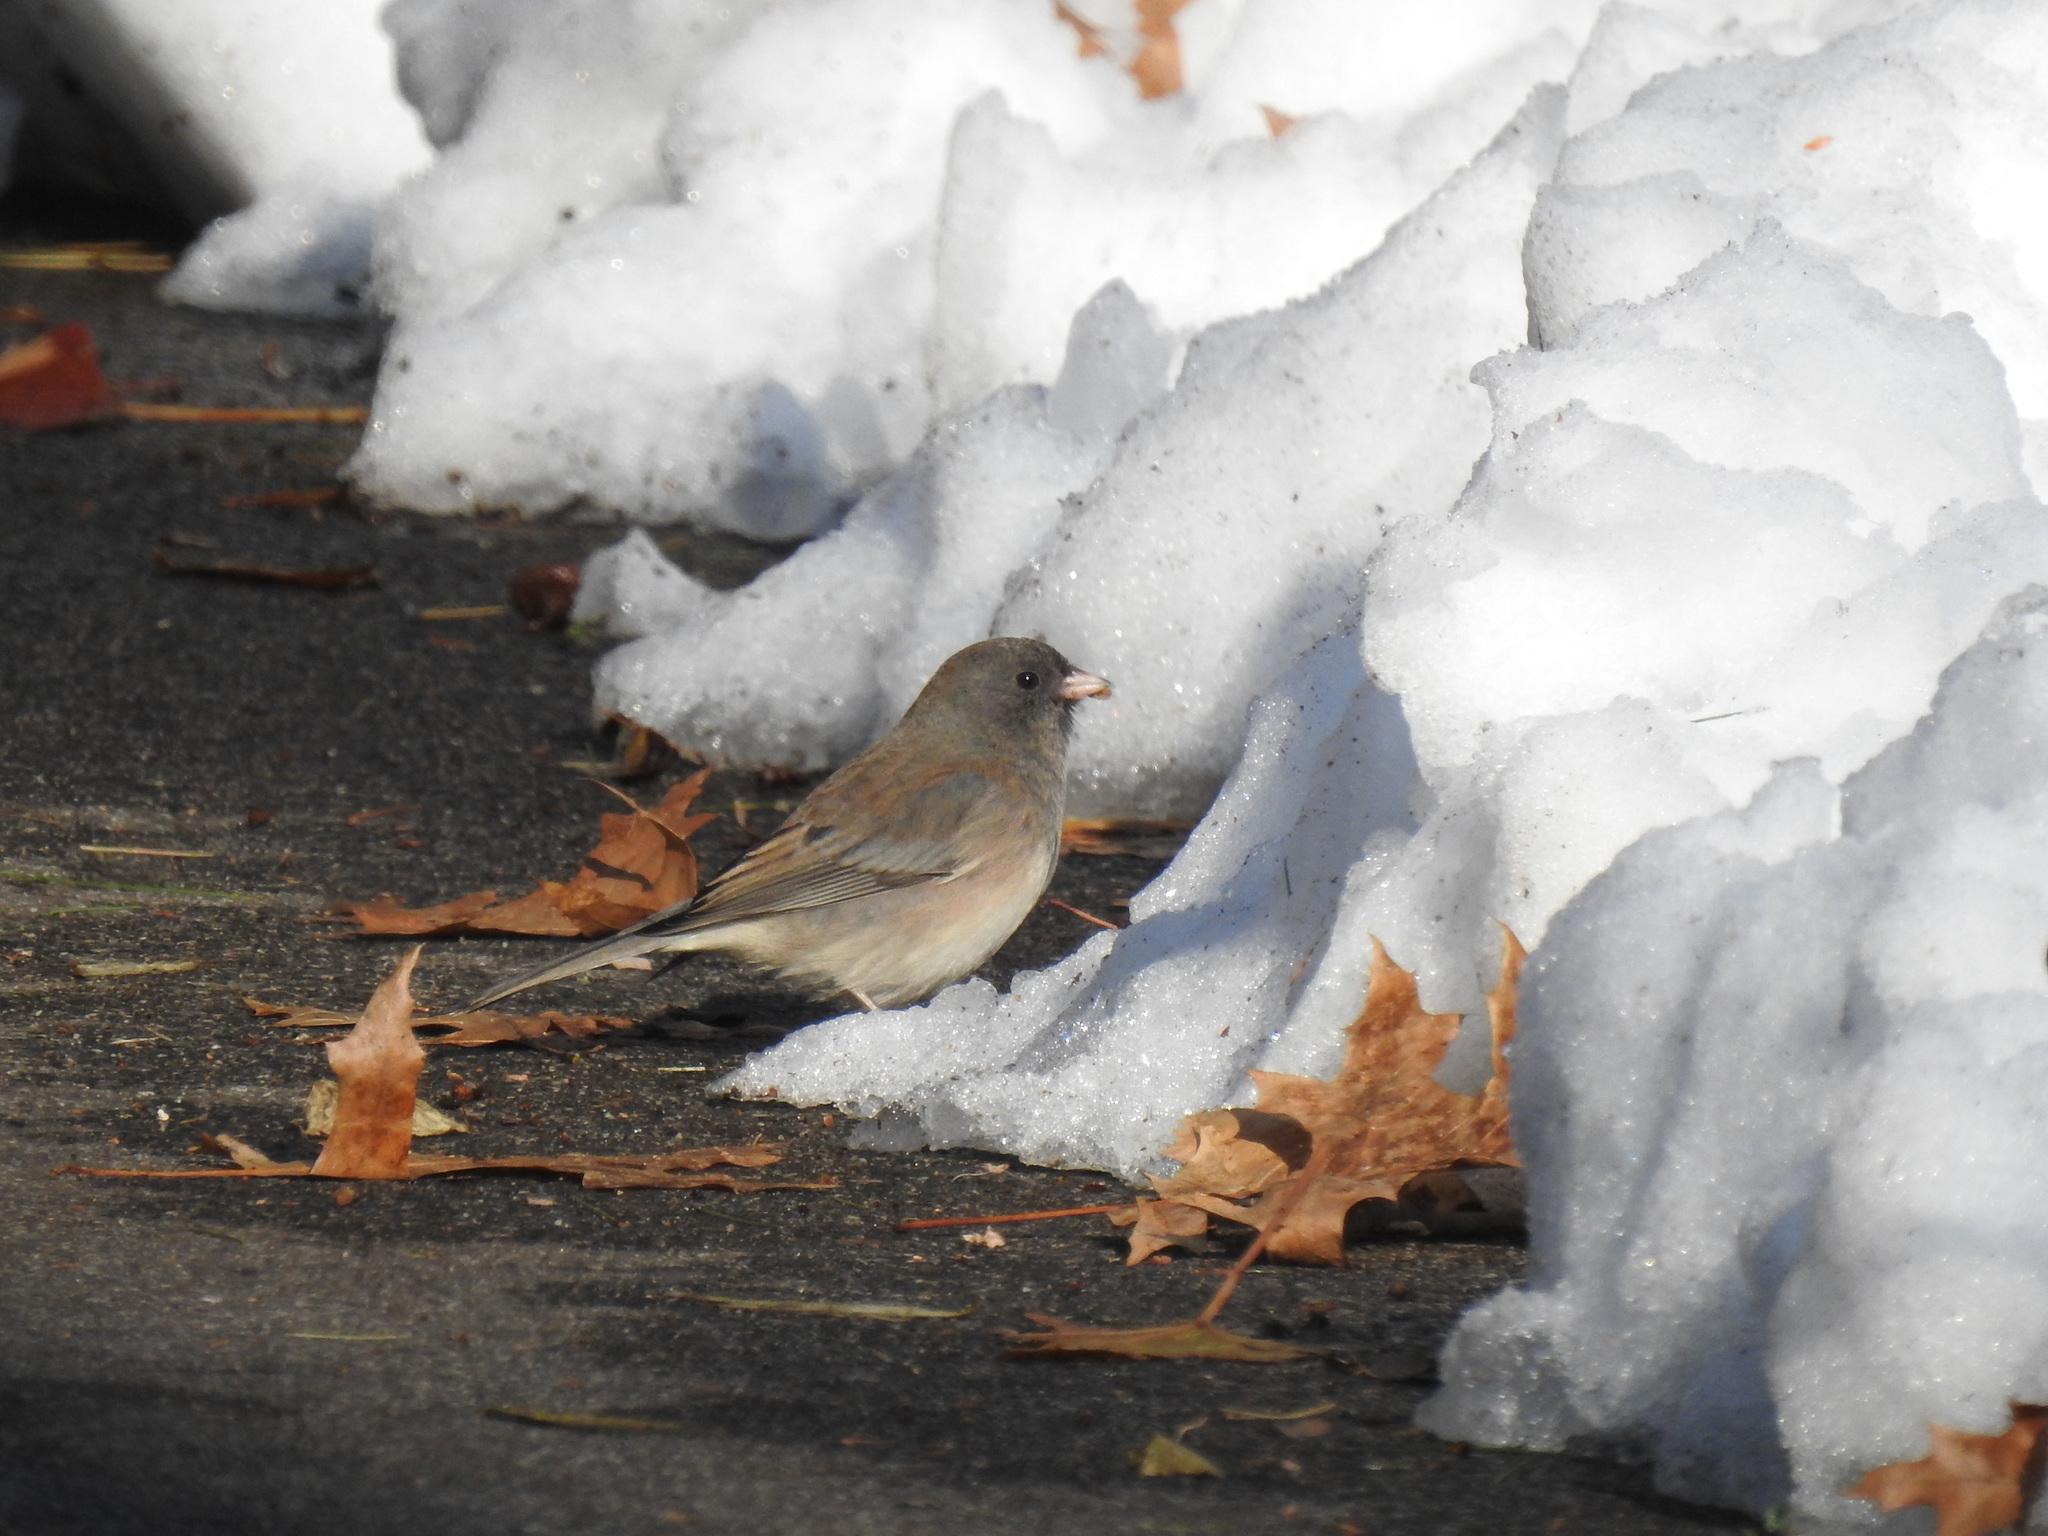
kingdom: Animalia
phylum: Chordata
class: Aves
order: Passeriformes
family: Passerellidae
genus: Junco
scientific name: Junco hyemalis
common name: Dark-eyed junco
